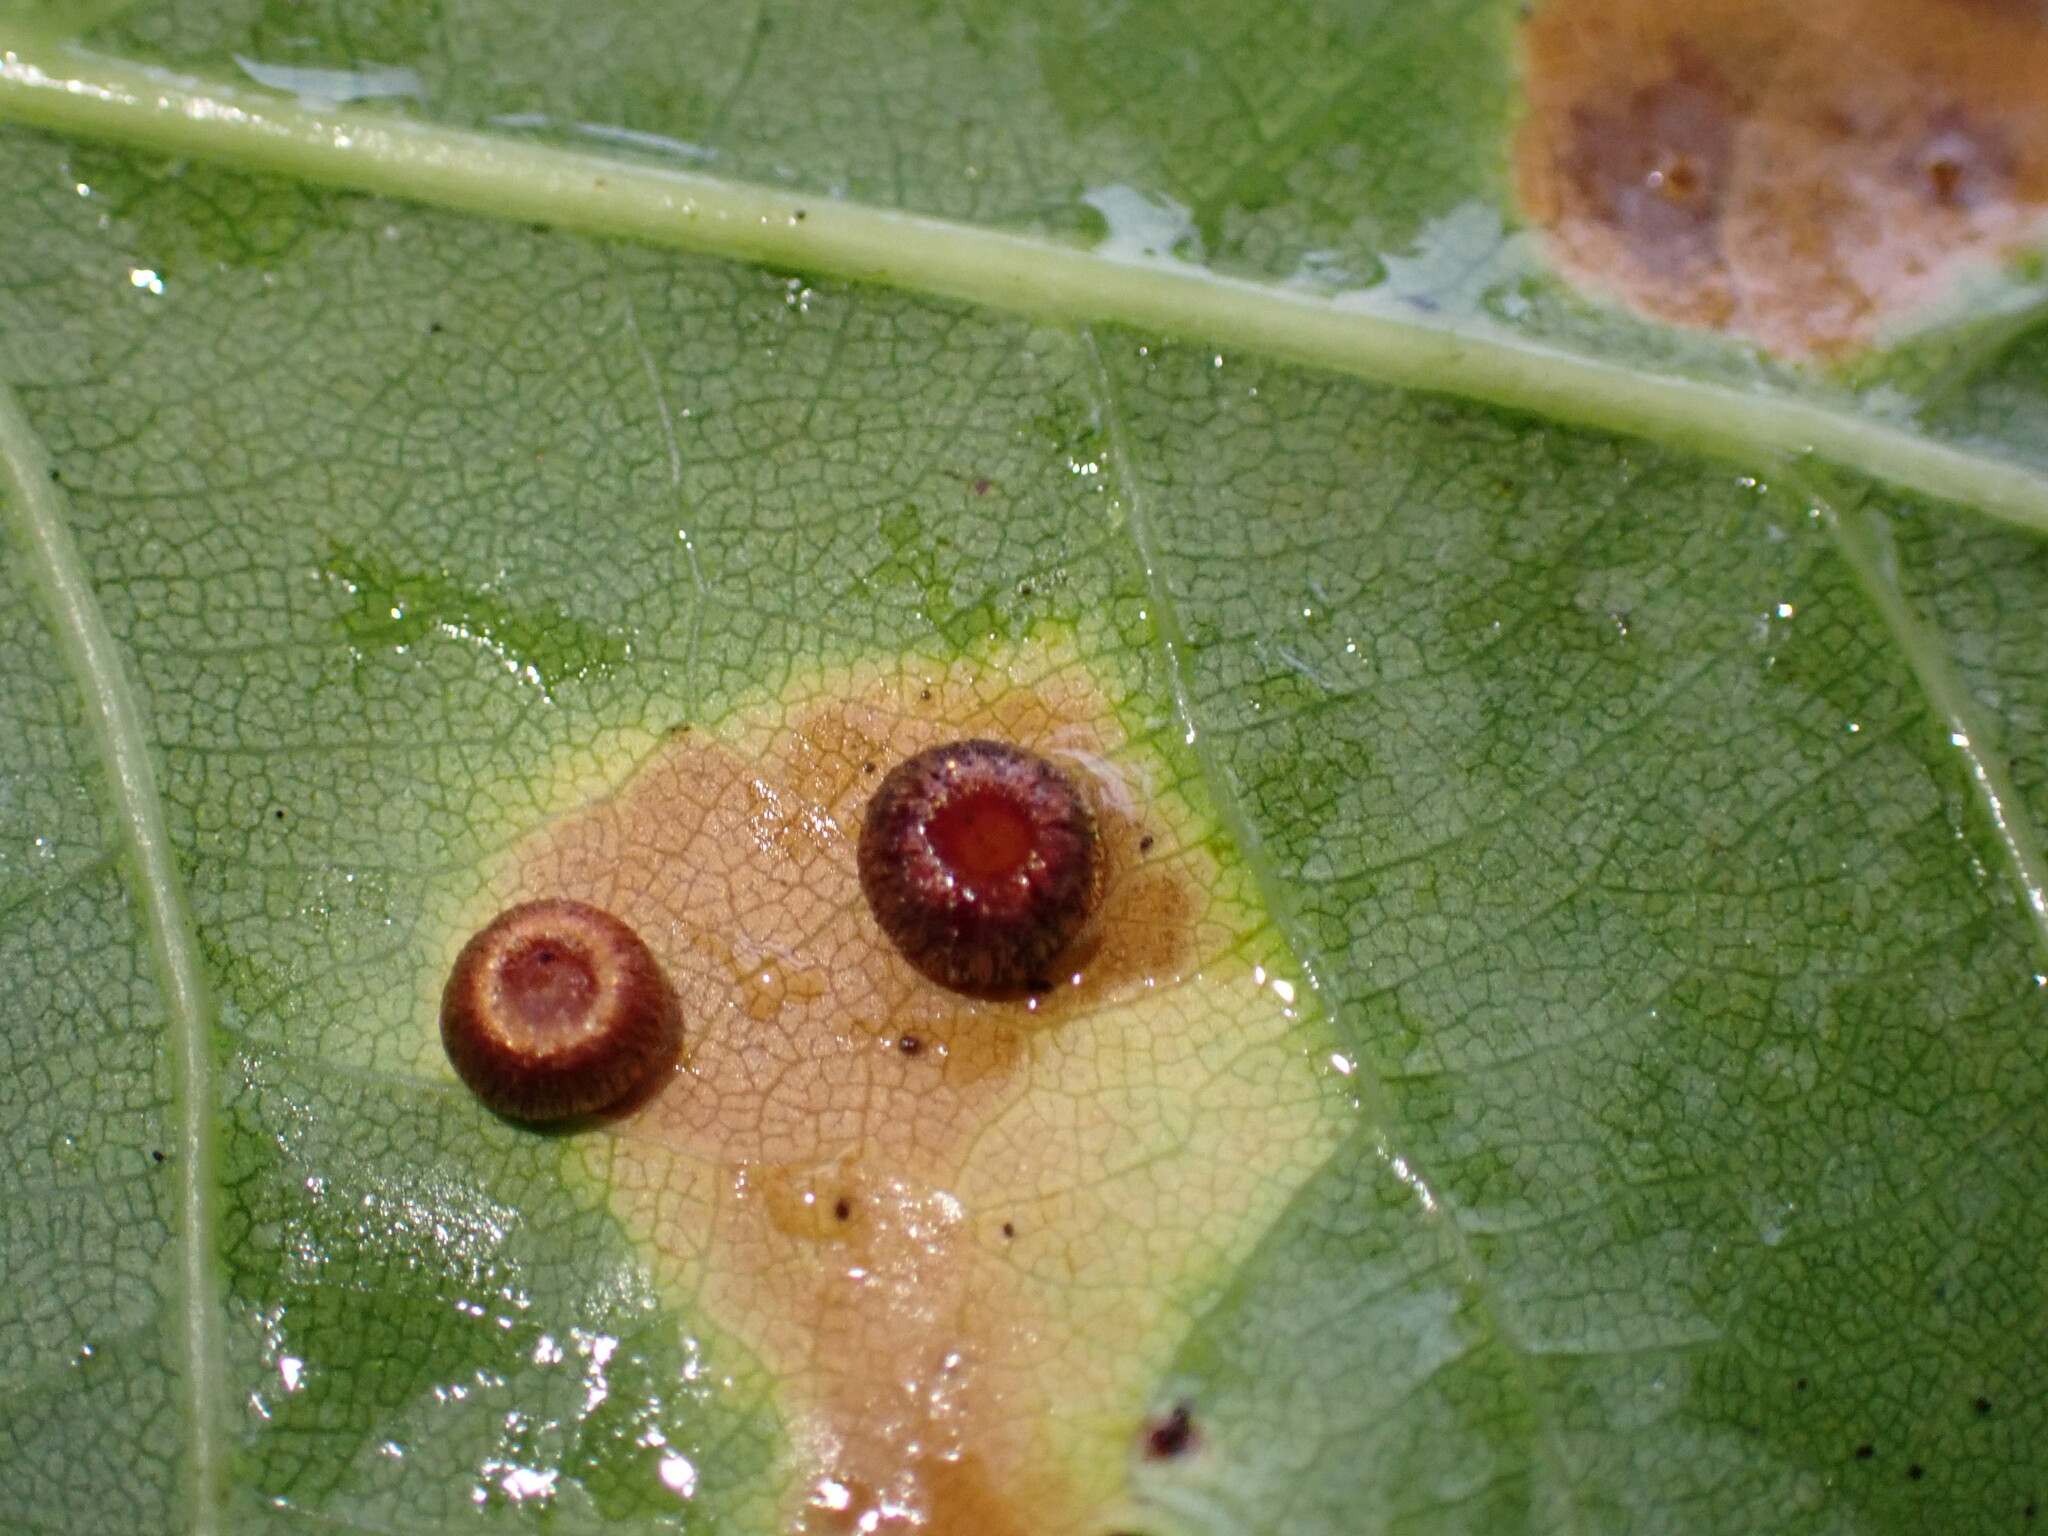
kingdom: Animalia
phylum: Arthropoda
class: Insecta
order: Hymenoptera
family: Cynipidae
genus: Neuroterus
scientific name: Neuroterus numismalis
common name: Silk-button spangle gall
